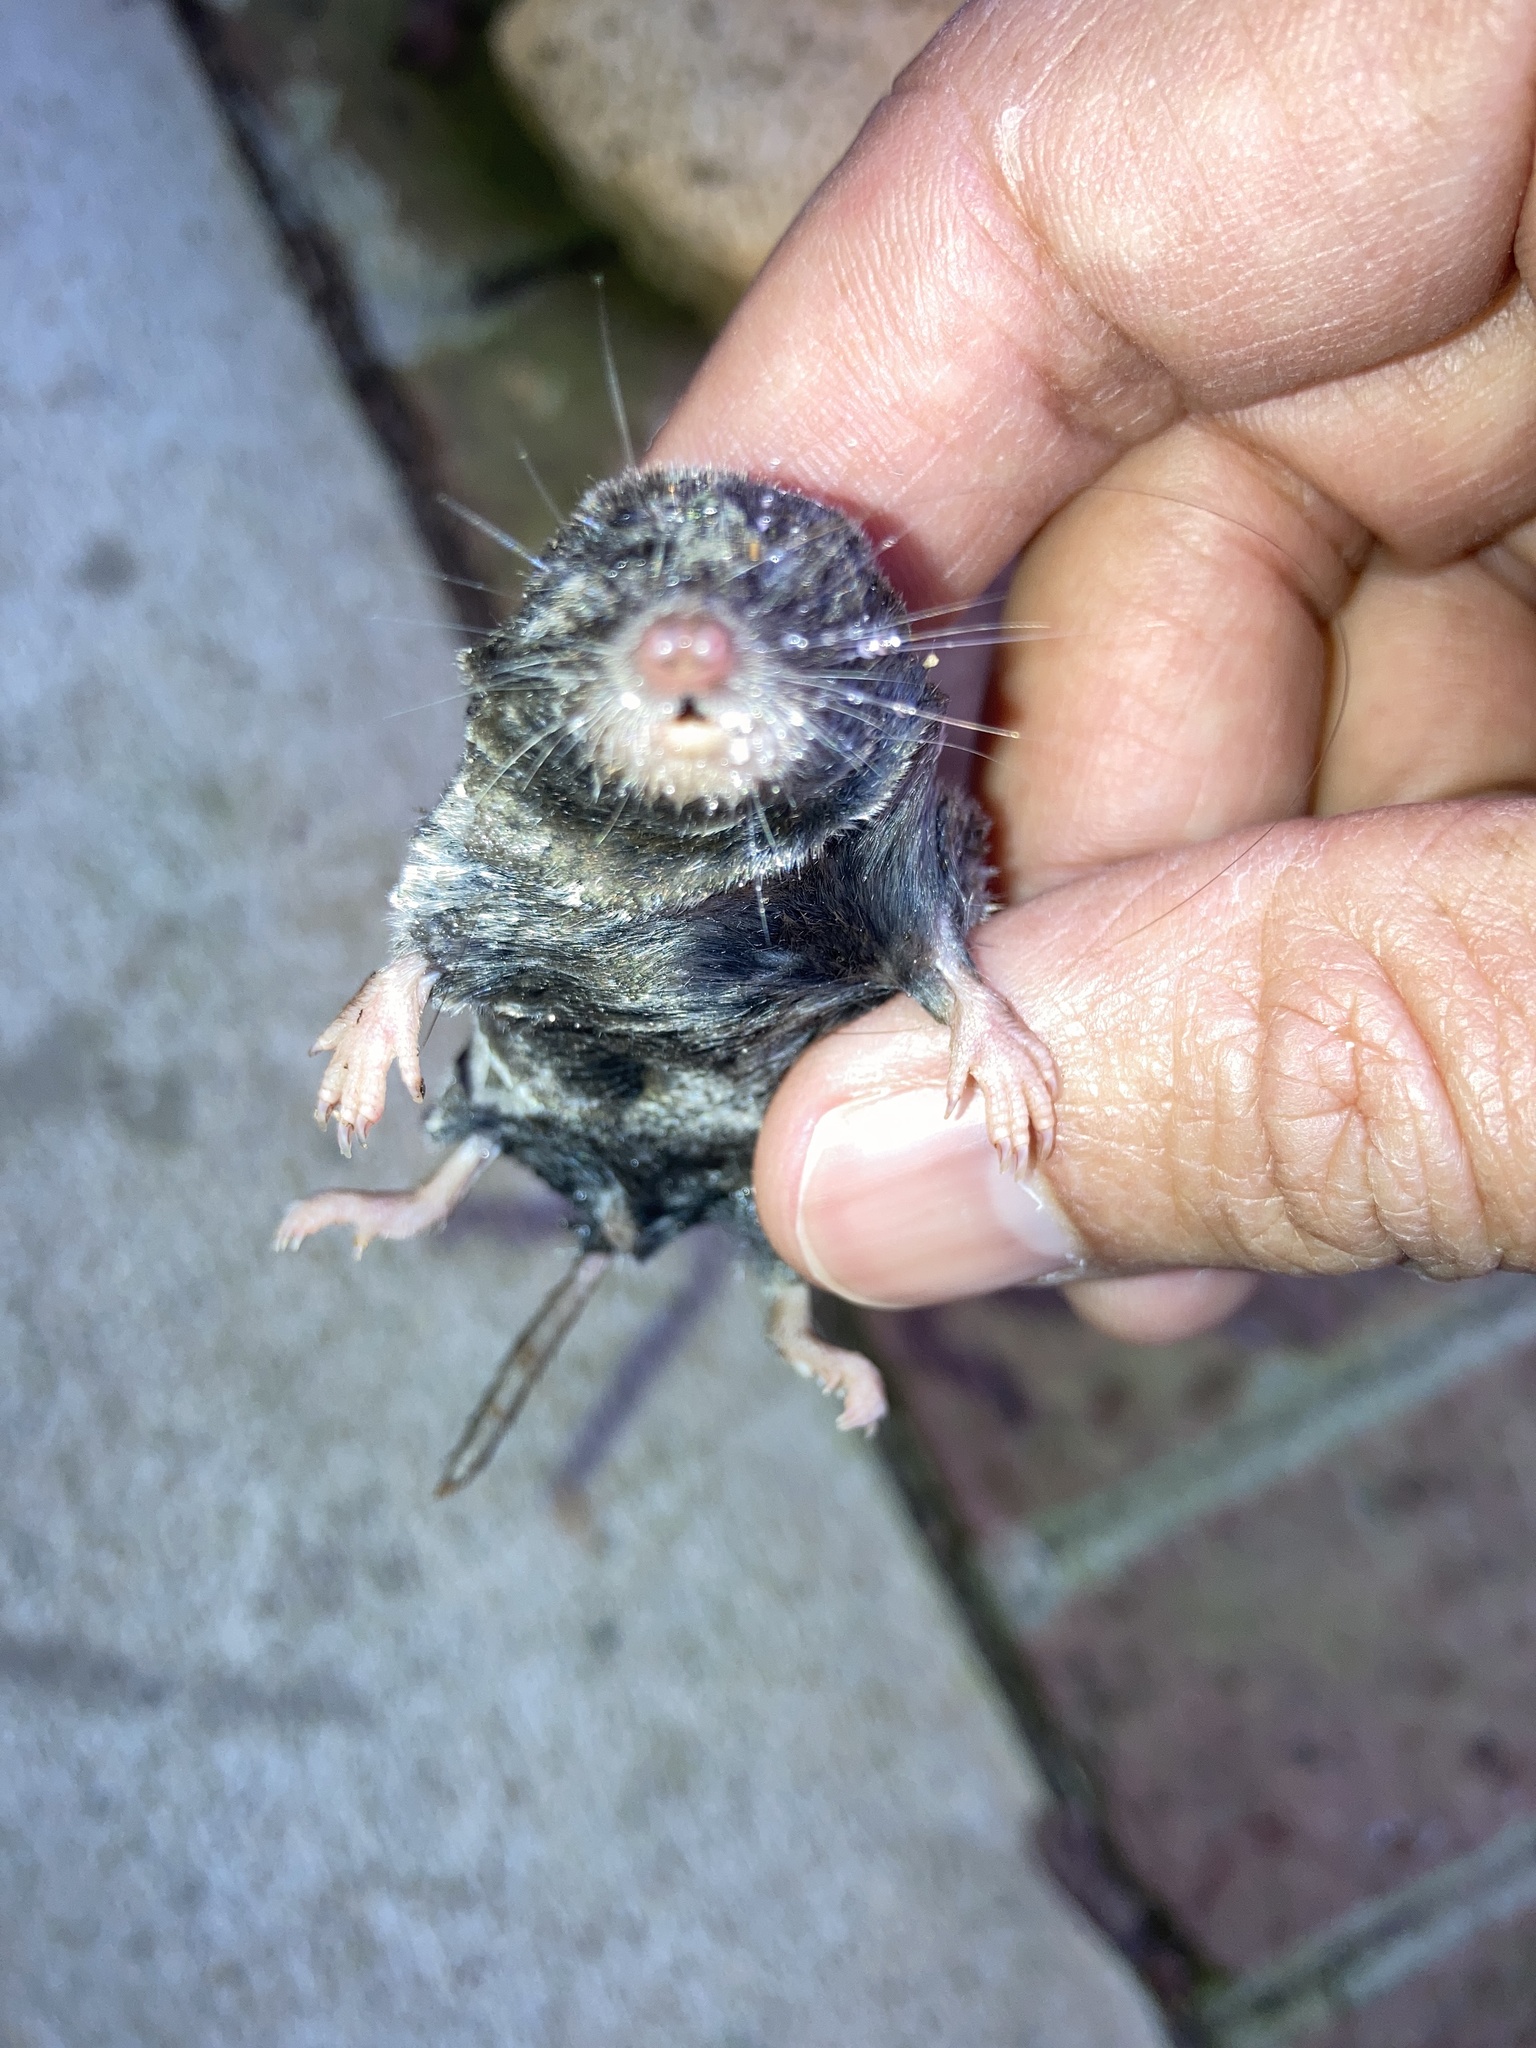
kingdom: Animalia
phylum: Chordata
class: Mammalia
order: Soricomorpha
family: Soricidae
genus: Blarina
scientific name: Blarina carolinensis
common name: Southern short-tailed shrew
